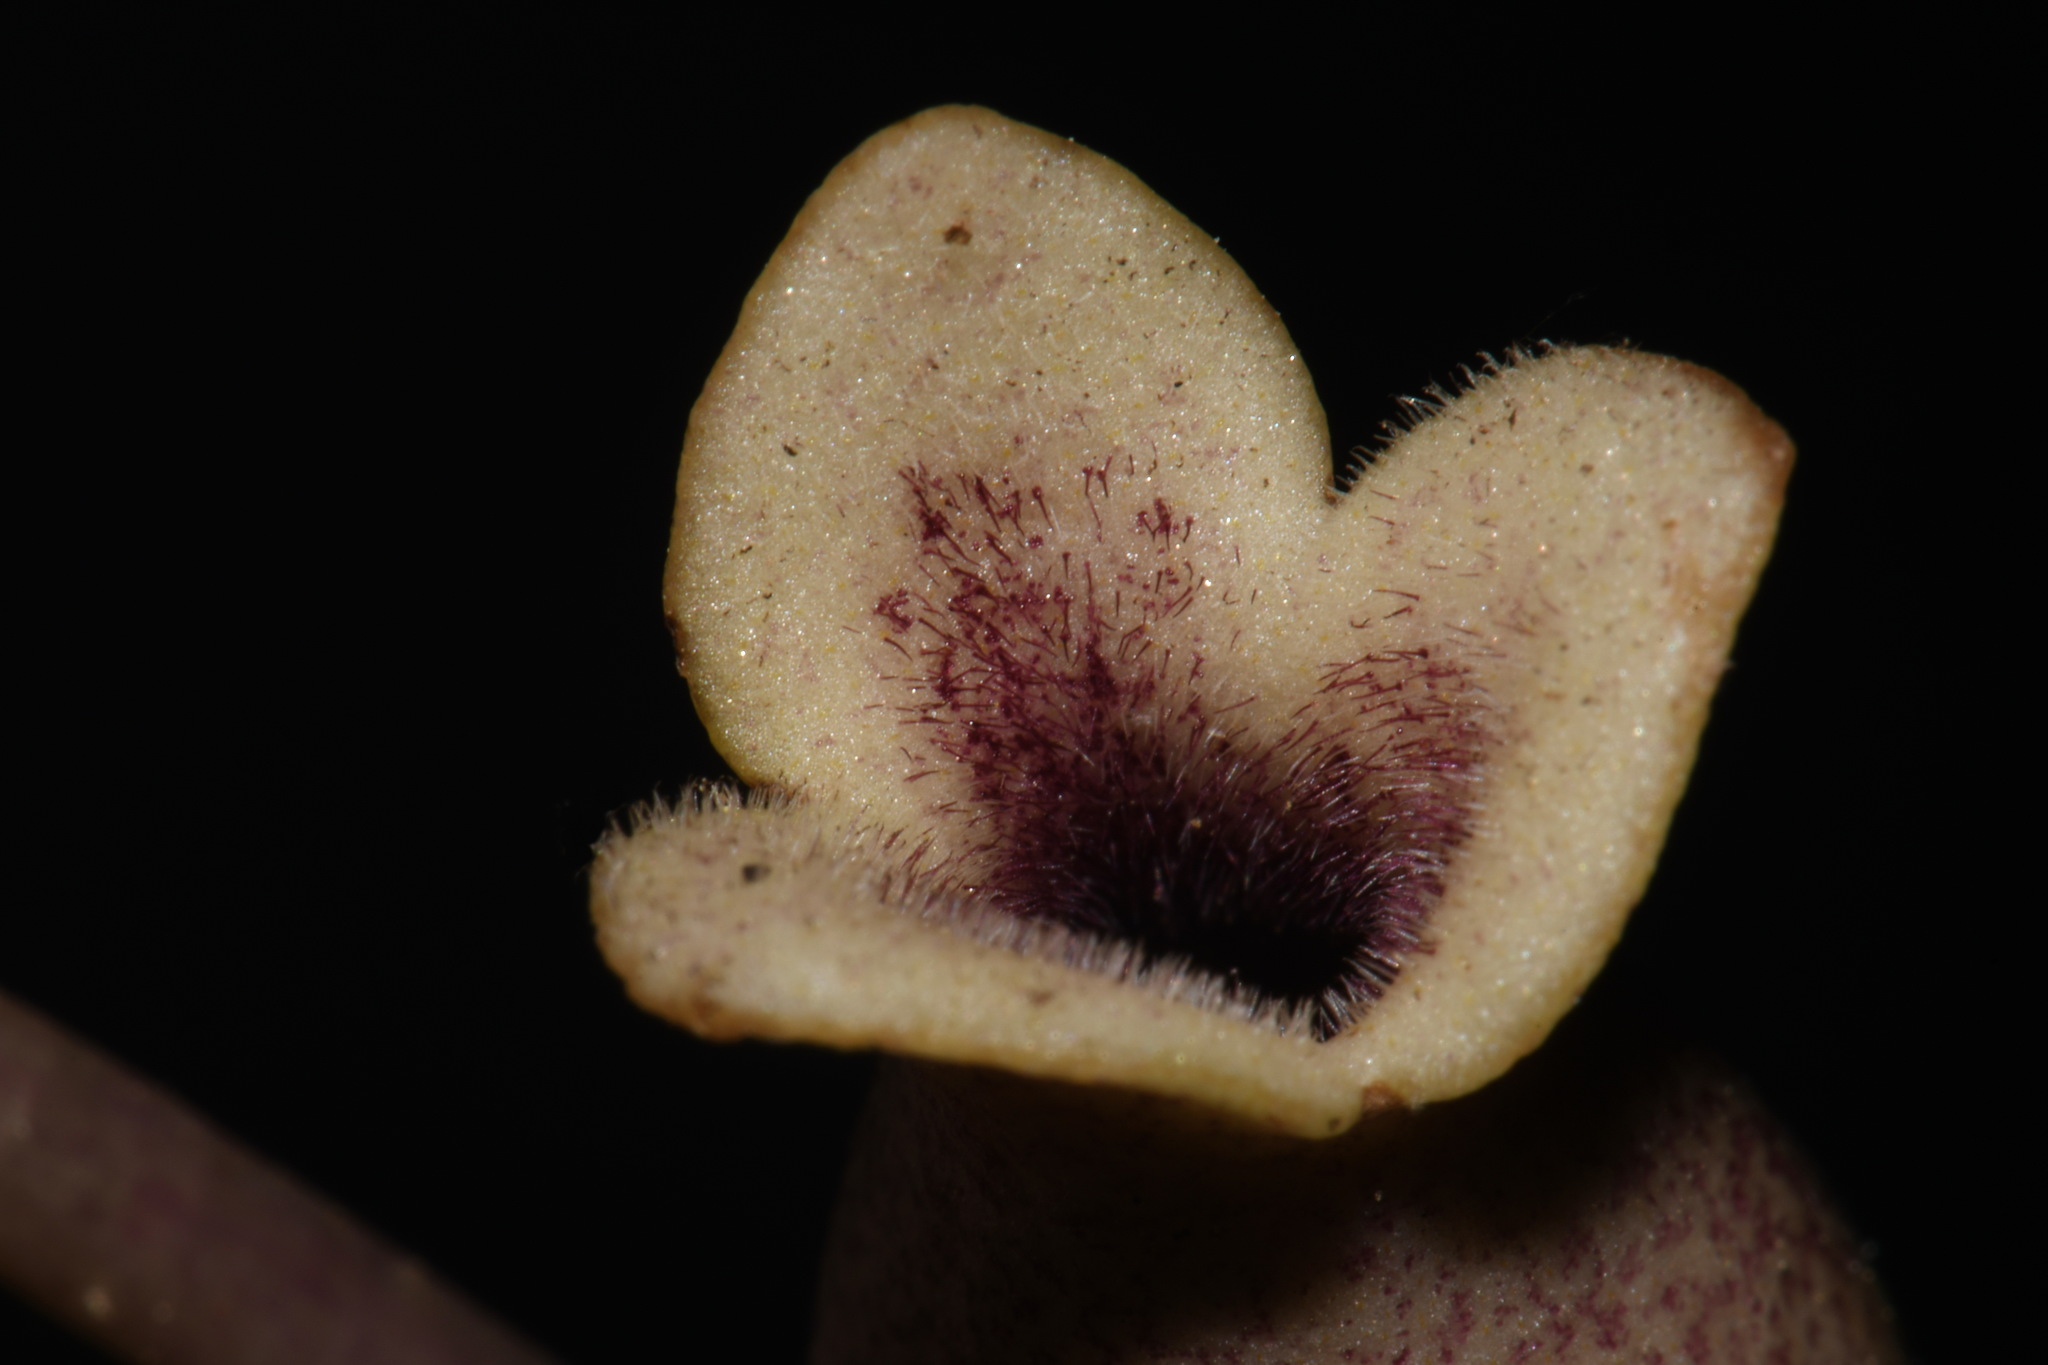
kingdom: Plantae
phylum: Tracheophyta
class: Magnoliopsida
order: Piperales
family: Aristolochiaceae
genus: Hexastylis
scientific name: Hexastylis arifolia
